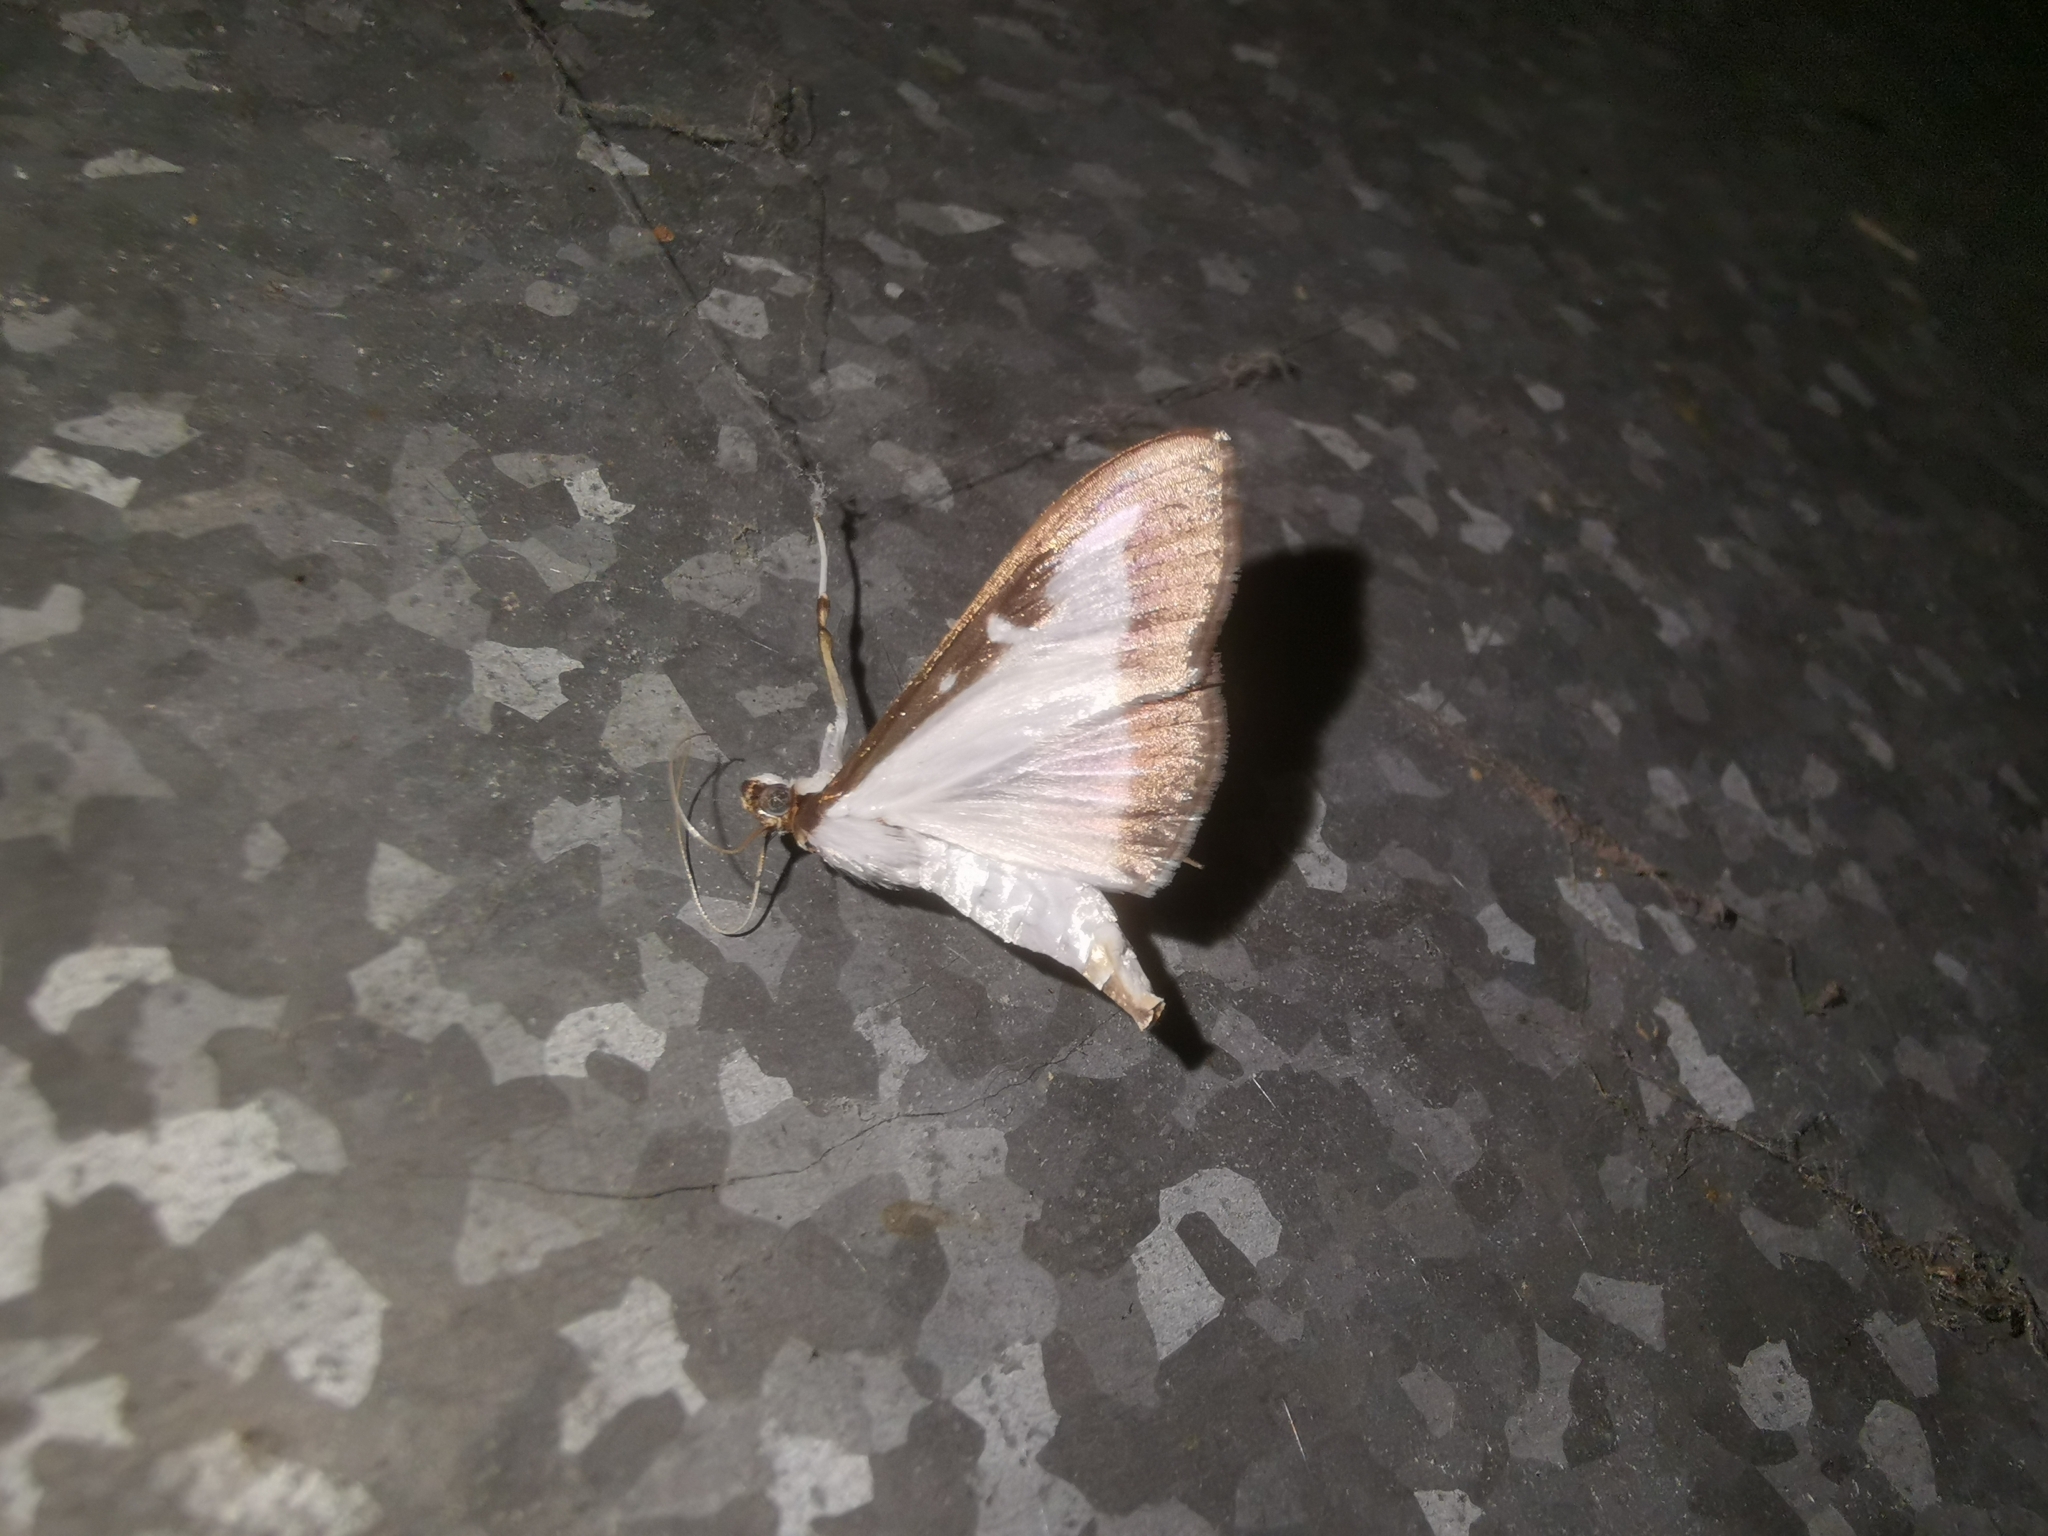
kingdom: Animalia
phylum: Arthropoda
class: Insecta
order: Lepidoptera
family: Crambidae
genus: Cydalima
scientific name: Cydalima perspectalis
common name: Box tree moth
